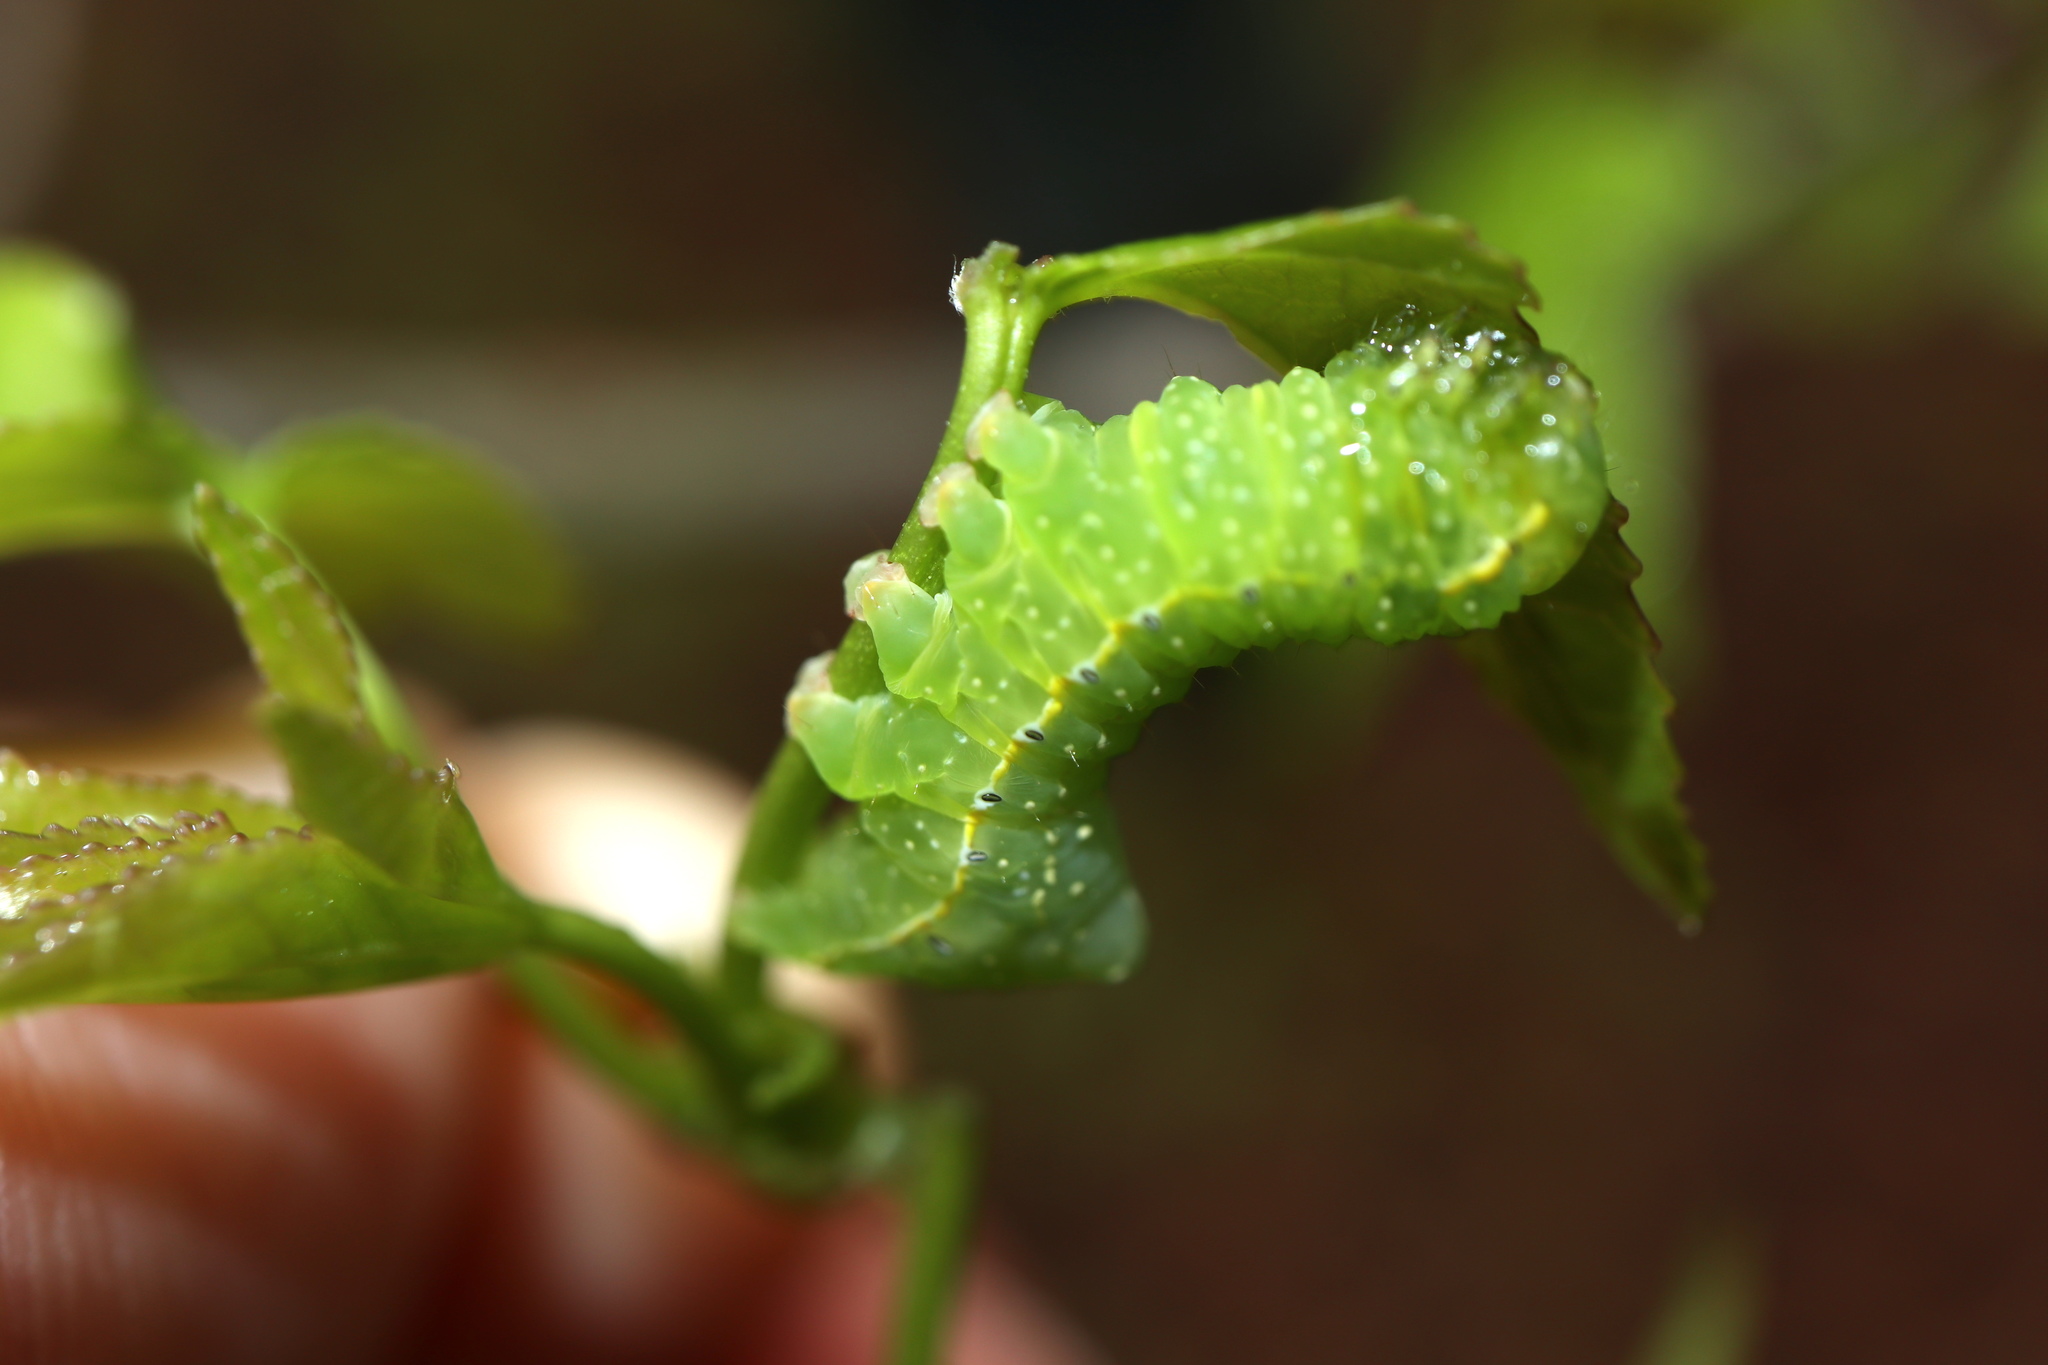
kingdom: Animalia
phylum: Arthropoda
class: Insecta
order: Lepidoptera
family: Noctuidae
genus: Amphipyra
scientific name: Amphipyra pyramidoides
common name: American copper underwing
